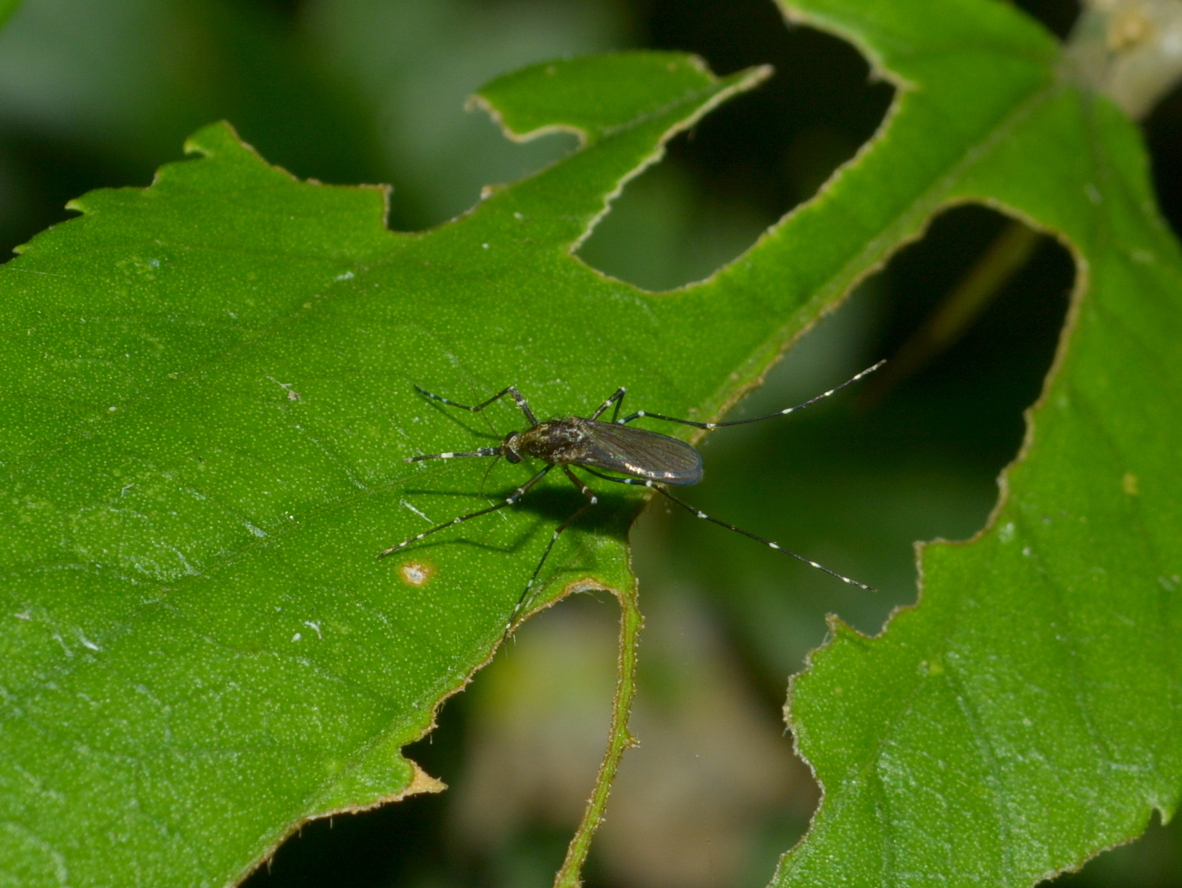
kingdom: Animalia
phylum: Arthropoda
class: Insecta
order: Diptera
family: Culicidae
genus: Coquillettidia
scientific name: Coquillettidia chrysonotum
